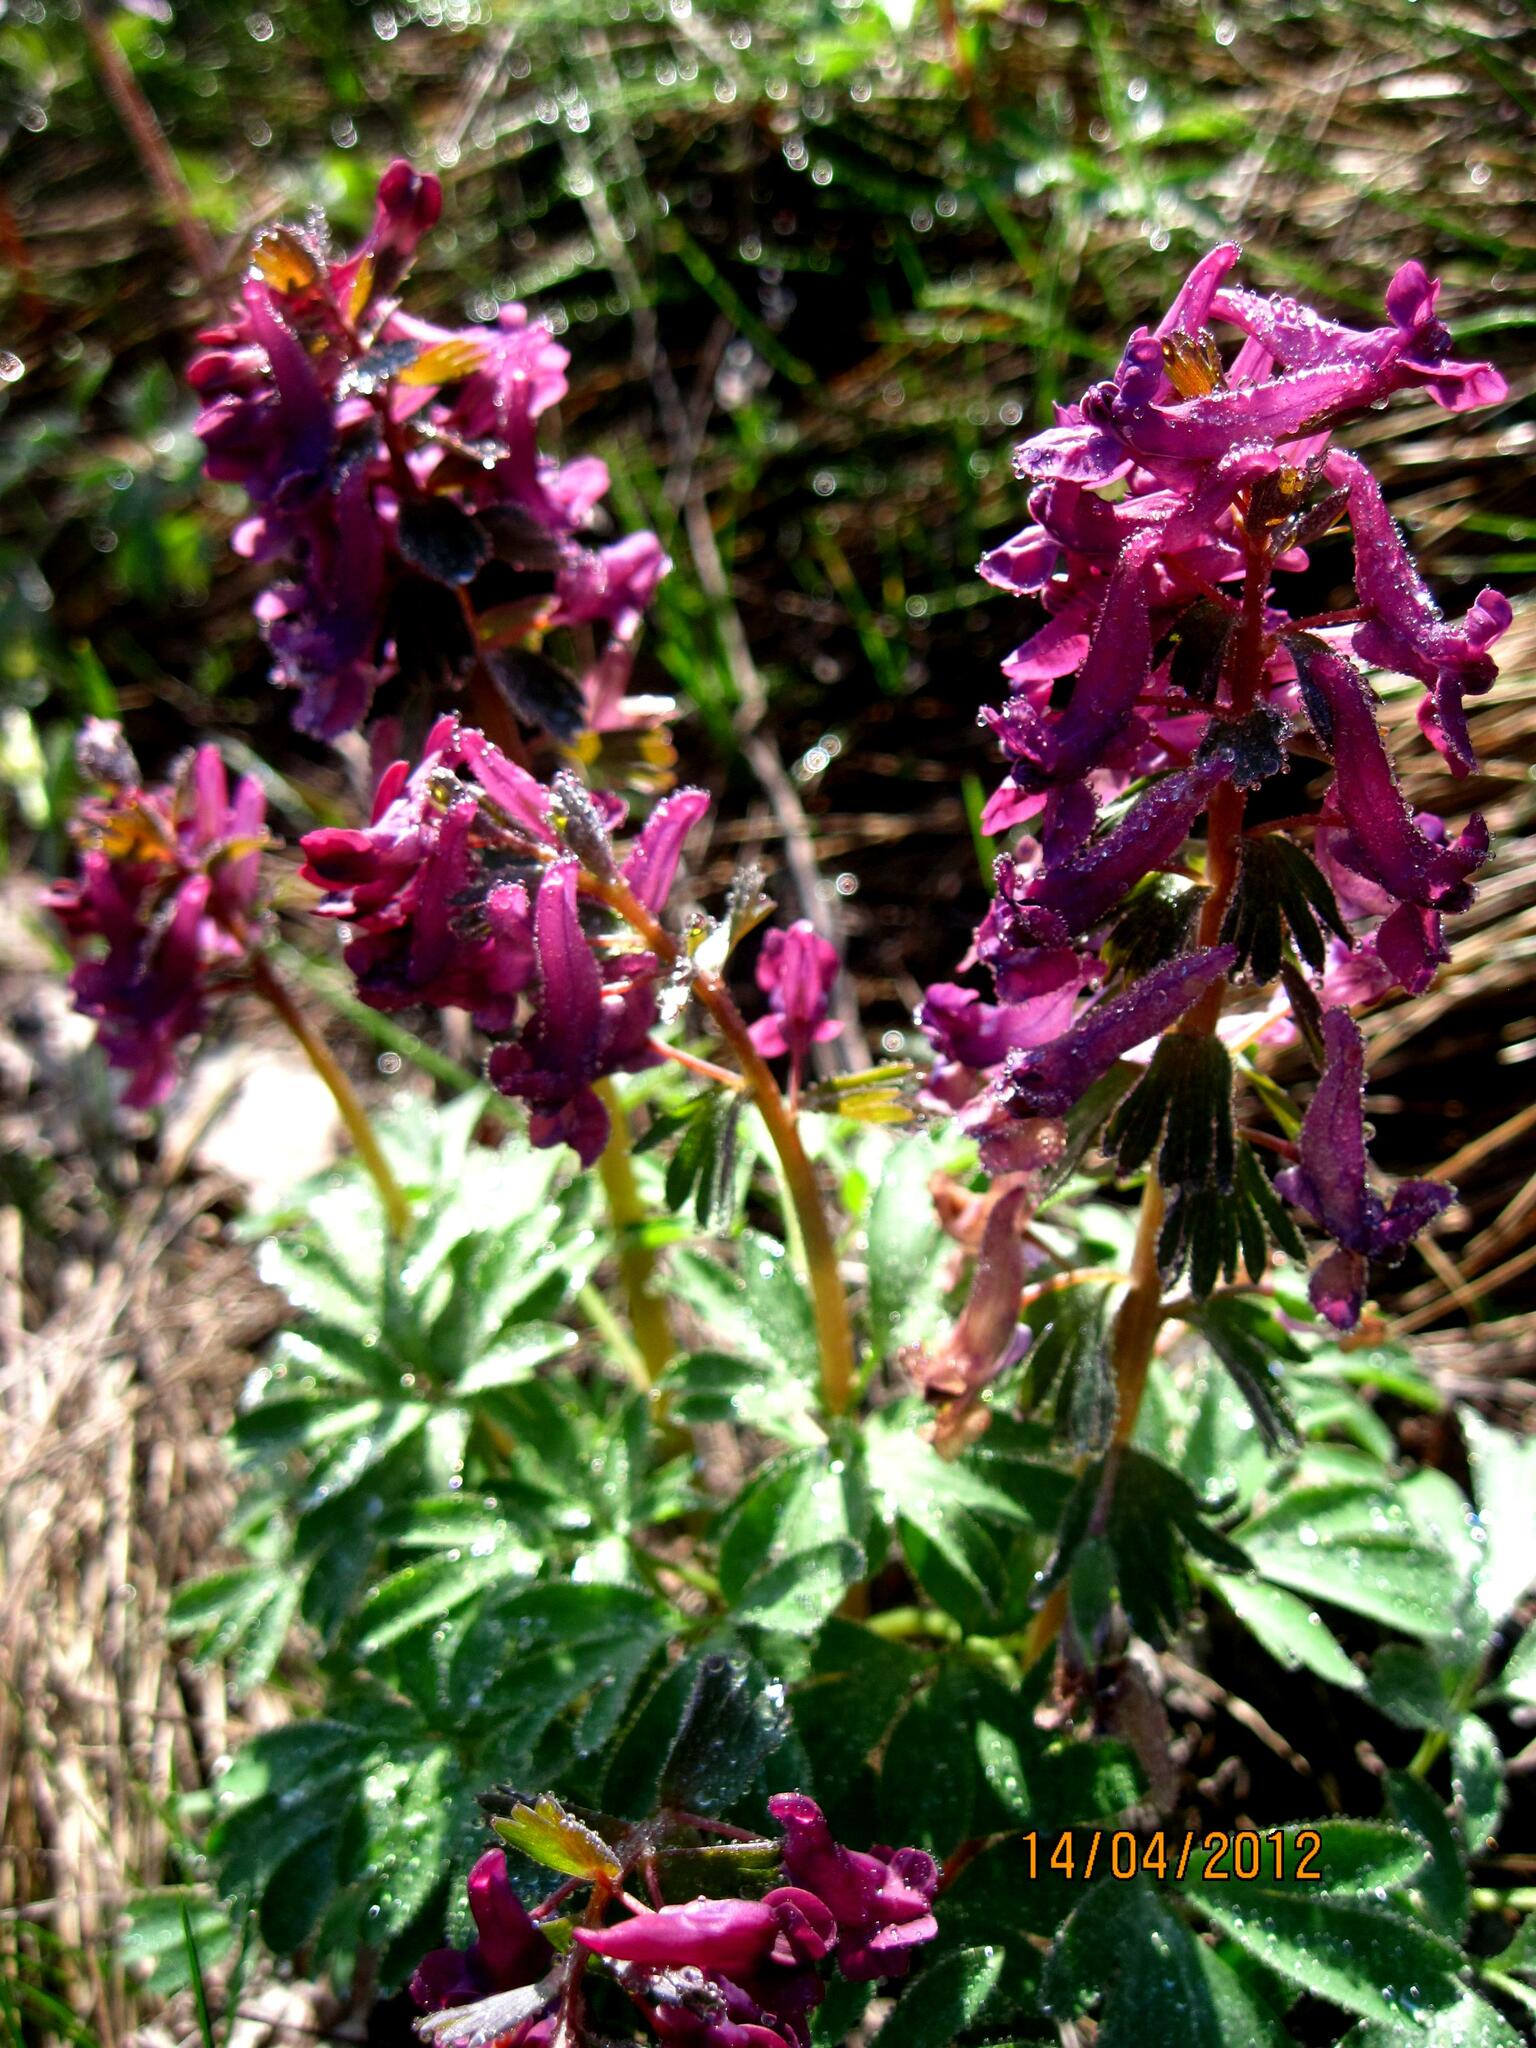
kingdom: Plantae
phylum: Tracheophyta
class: Magnoliopsida
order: Ranunculales
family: Papaveraceae
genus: Corydalis
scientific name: Corydalis solida
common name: Bird-in-a-bush
